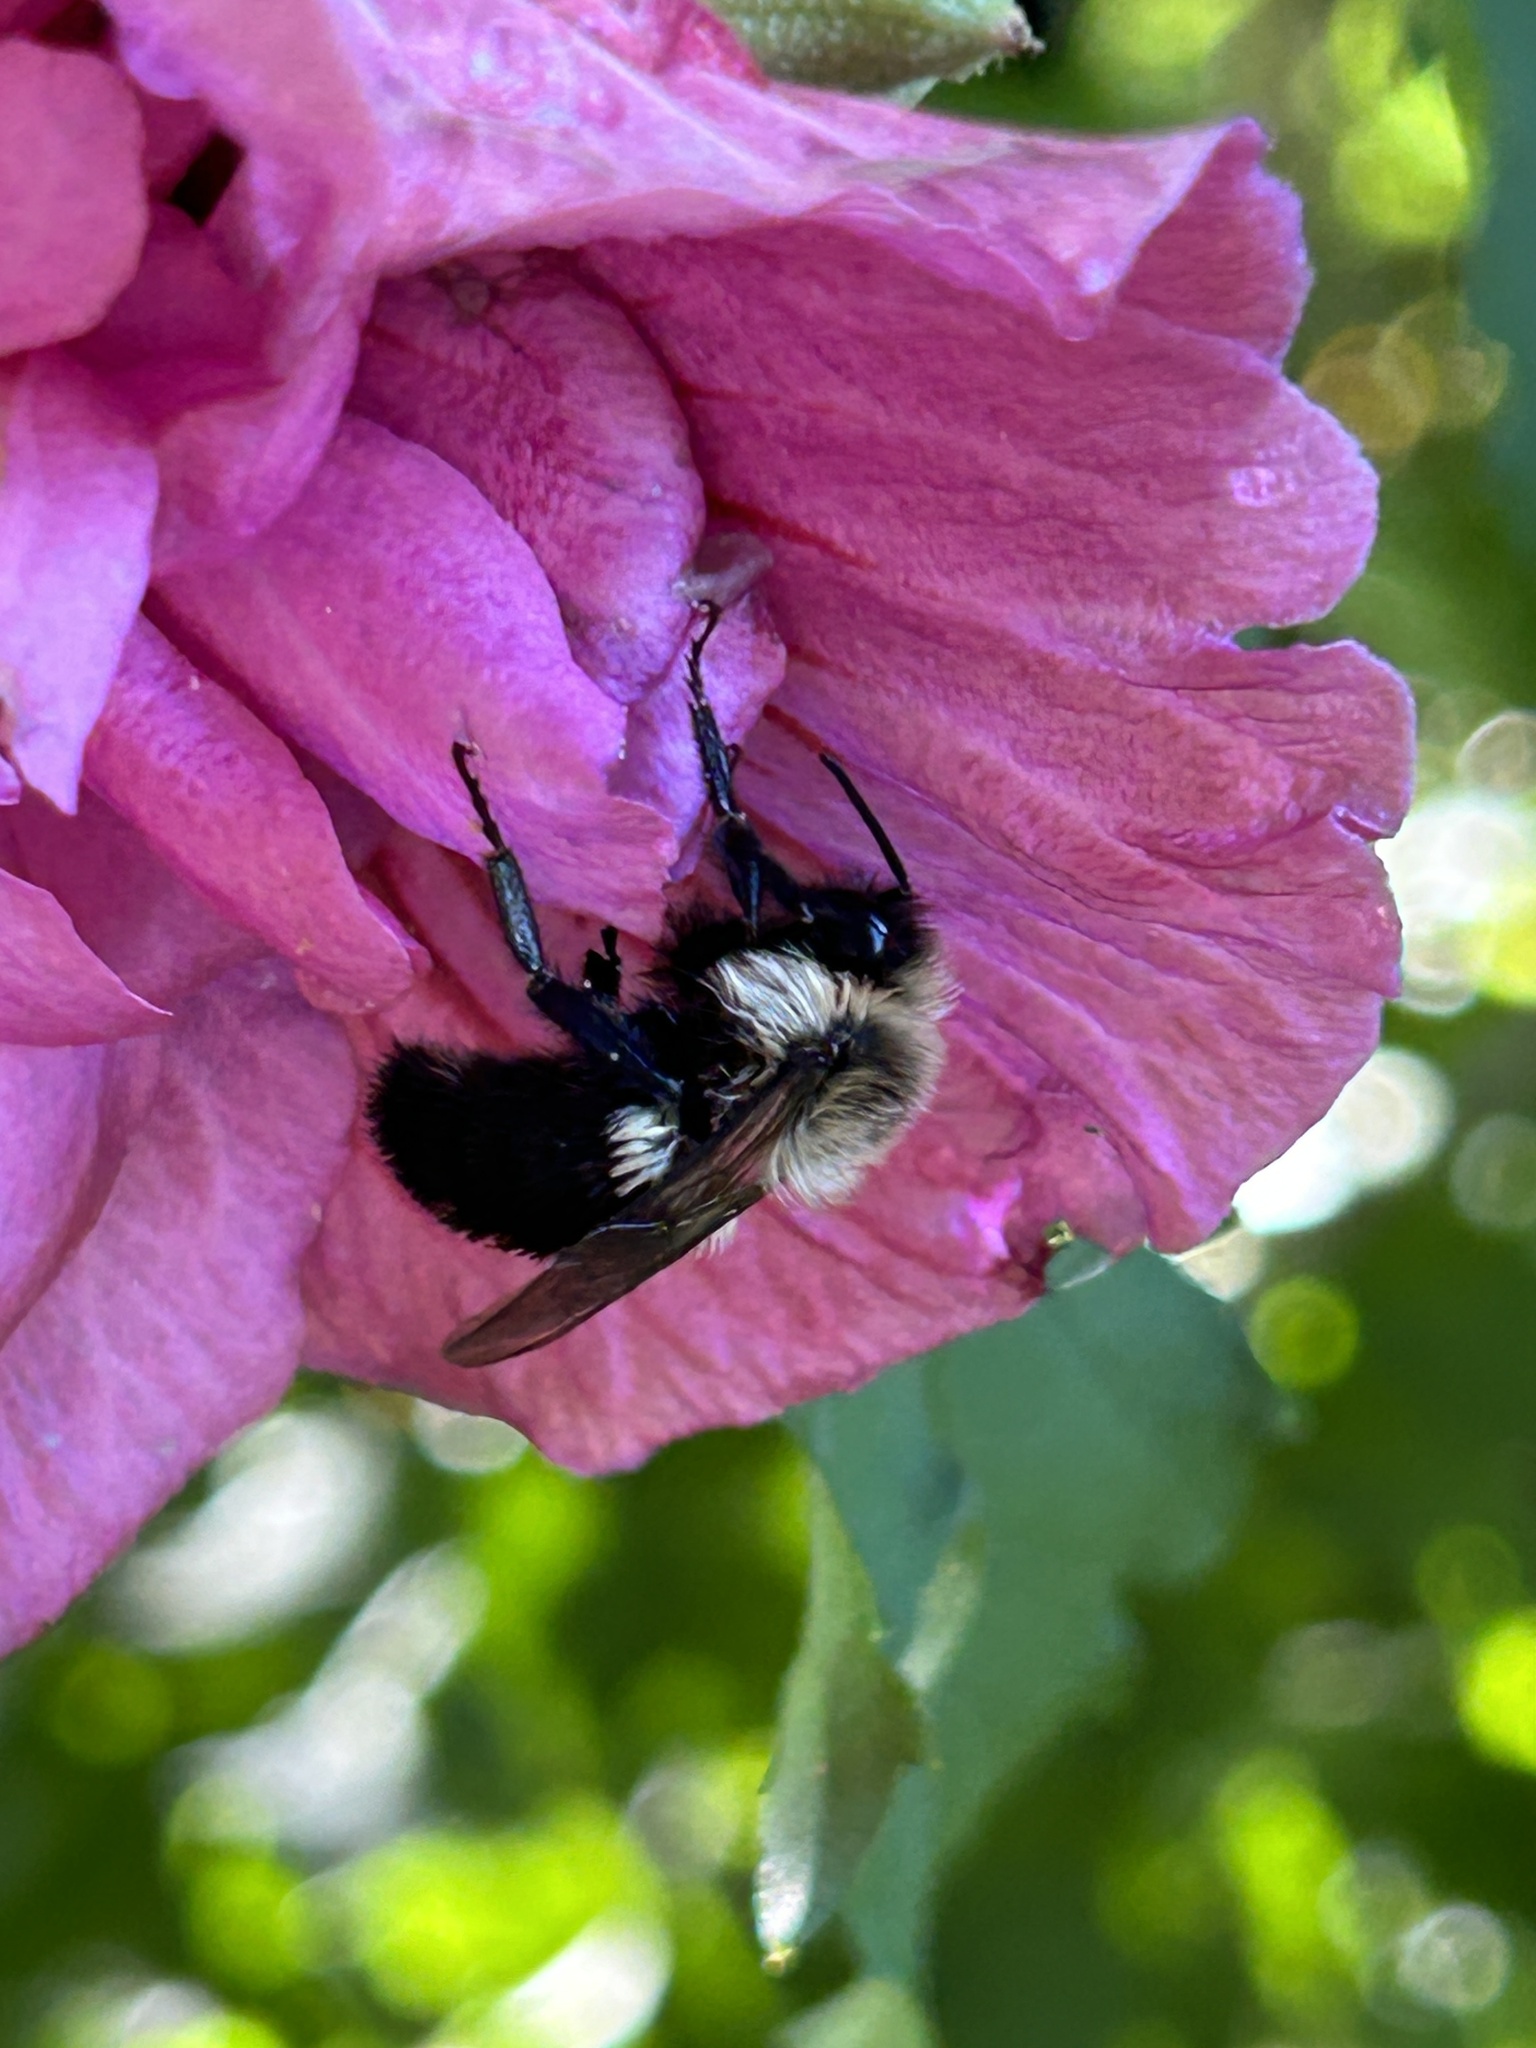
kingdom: Animalia
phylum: Arthropoda
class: Insecta
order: Hymenoptera
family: Apidae
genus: Bombus
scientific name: Bombus impatiens
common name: Common eastern bumble bee
